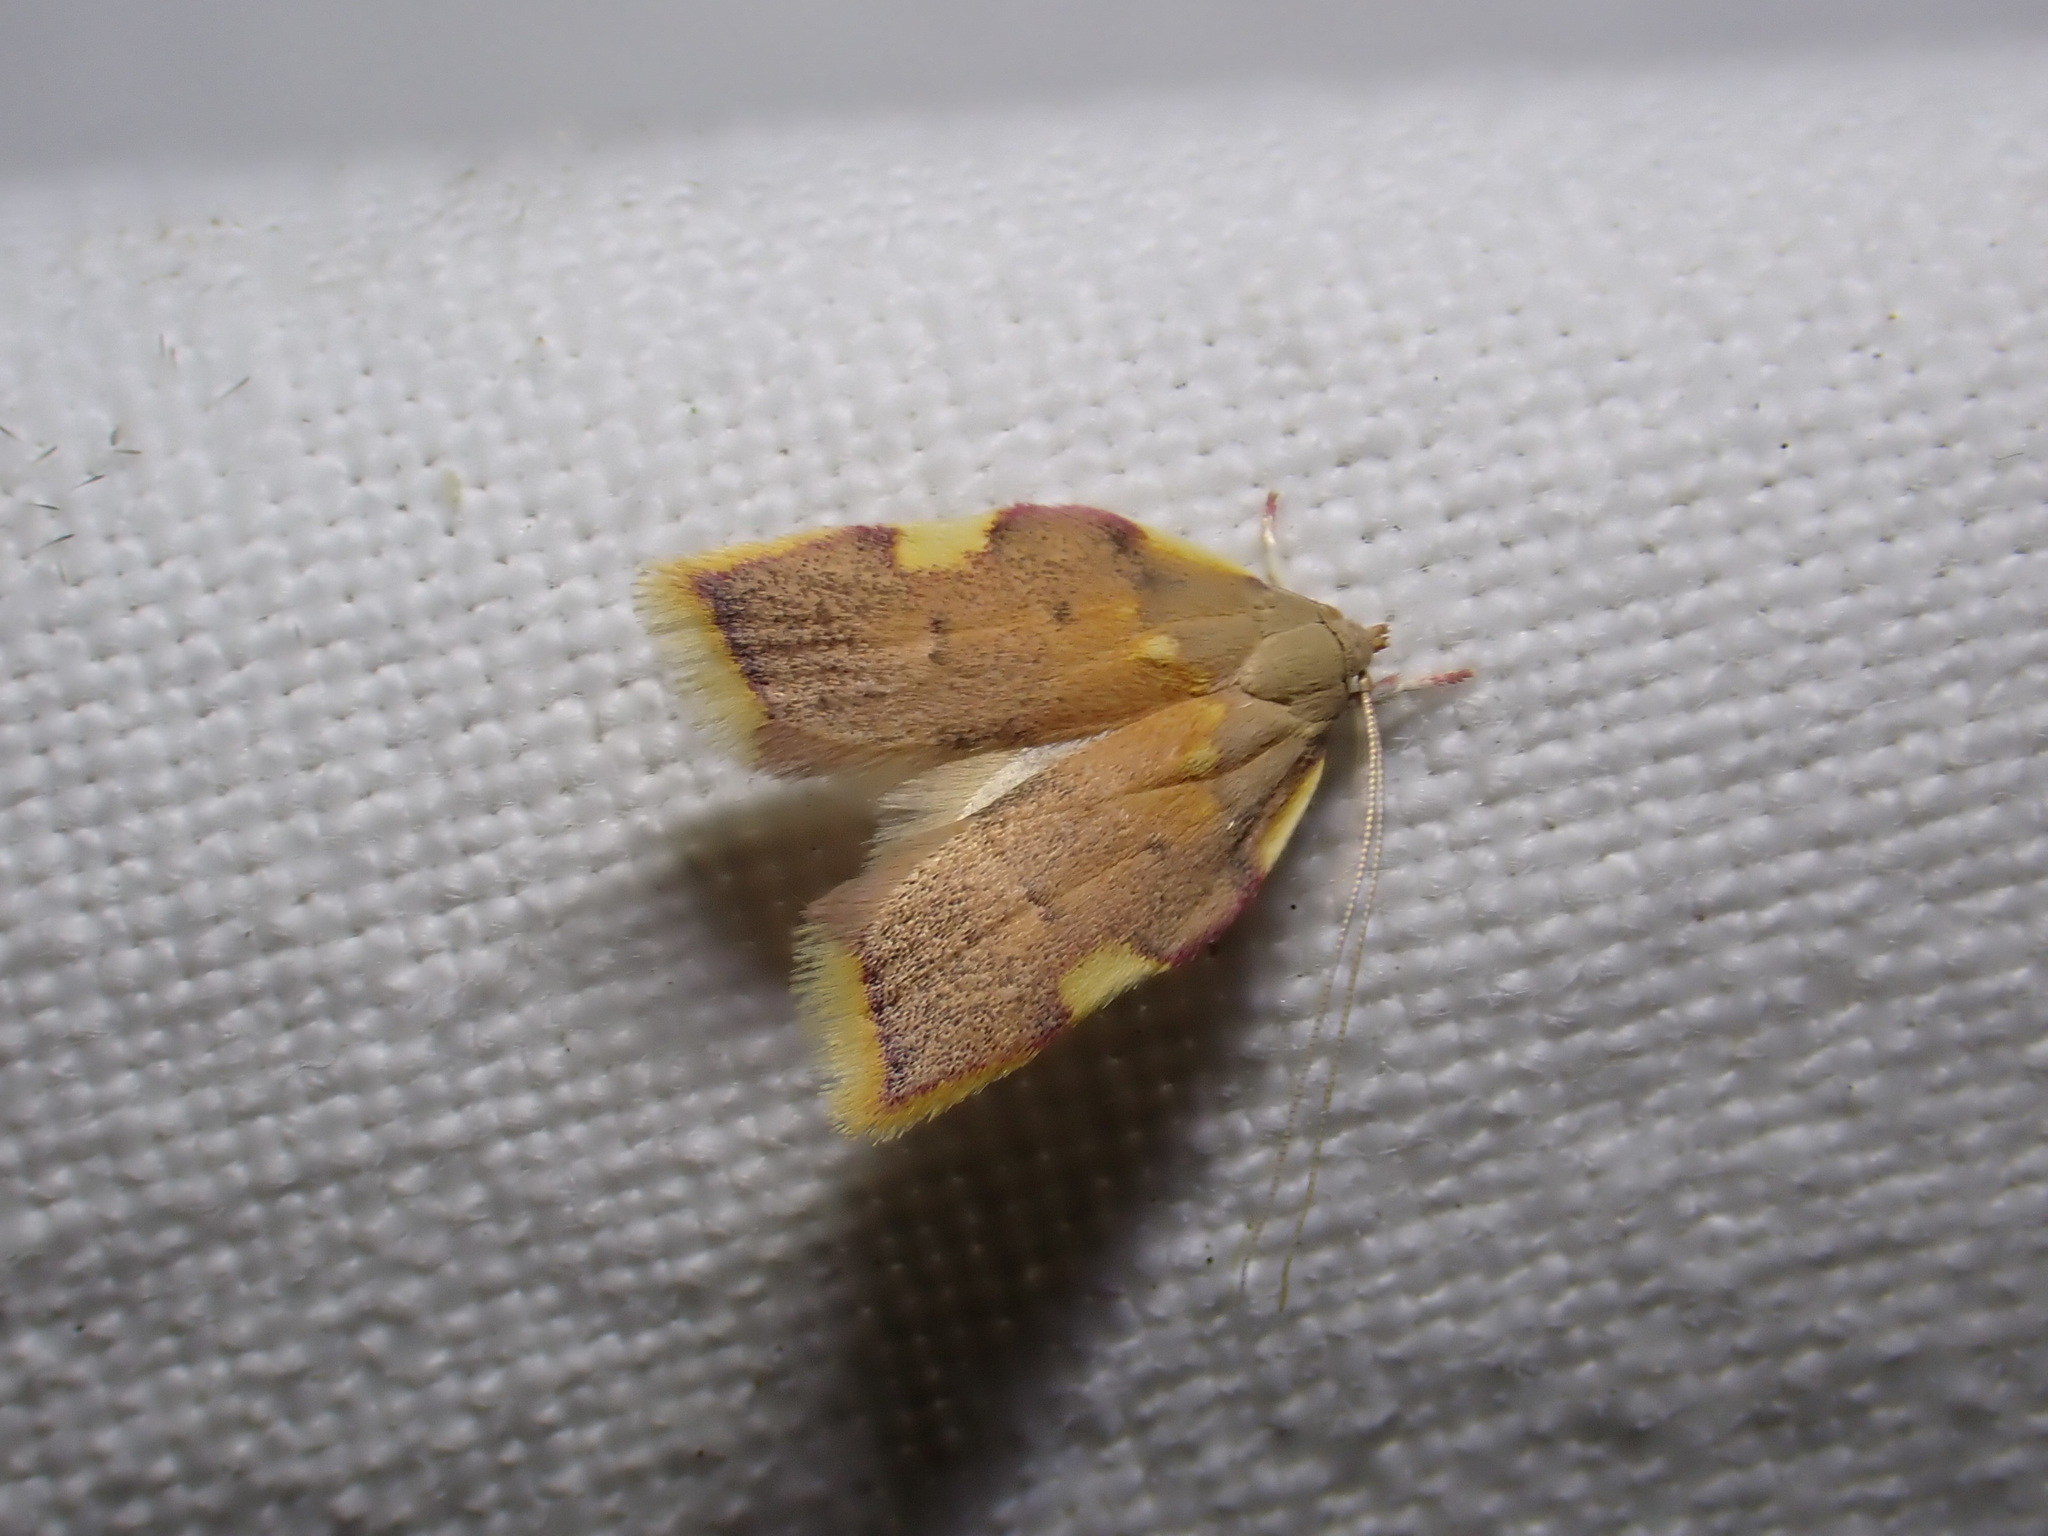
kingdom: Animalia
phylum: Arthropoda
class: Insecta
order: Lepidoptera
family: Peleopodidae
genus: Carcina
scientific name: Carcina quercana
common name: Moth
